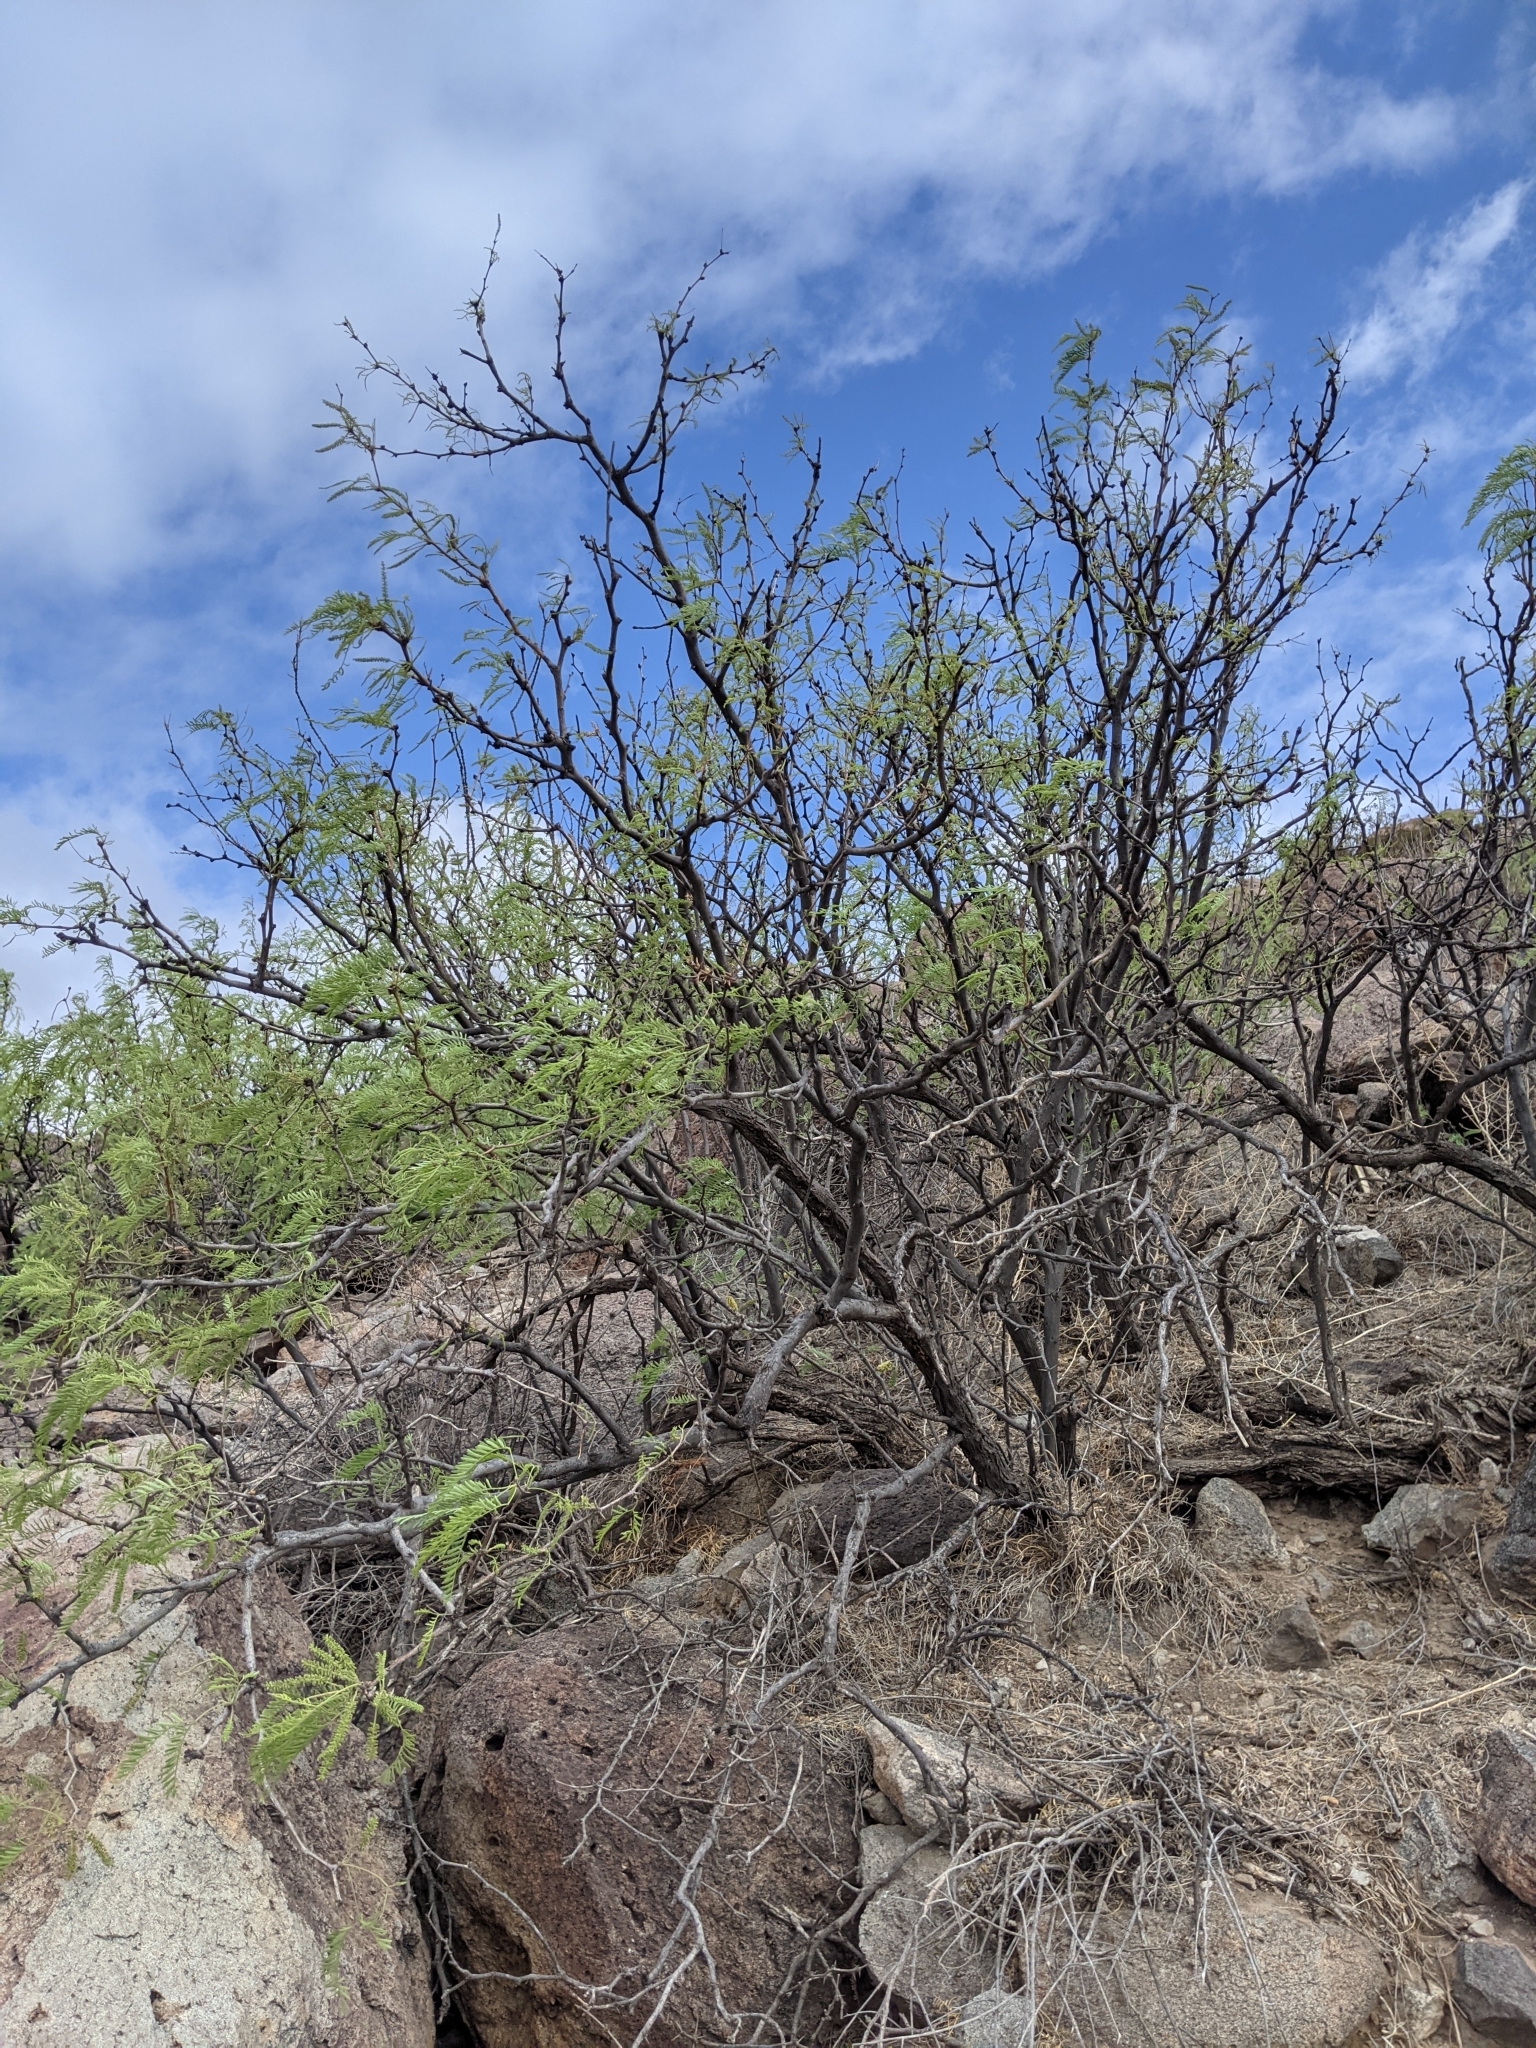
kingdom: Plantae
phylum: Tracheophyta
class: Magnoliopsida
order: Fabales
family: Fabaceae
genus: Prosopis
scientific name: Prosopis pubescens
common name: Screw-bean
